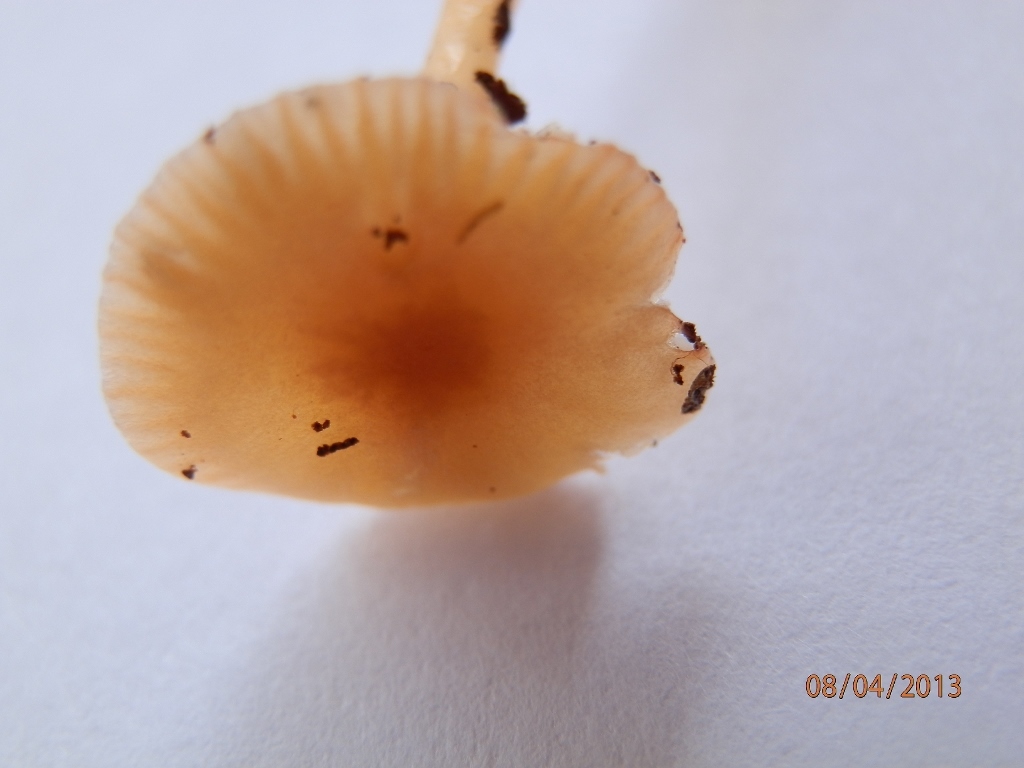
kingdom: Fungi
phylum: Basidiomycota
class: Agaricomycetes
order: Agaricales
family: Hygrophoraceae
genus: Gliophorus
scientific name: Gliophorus laetus
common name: Heath waxcap
